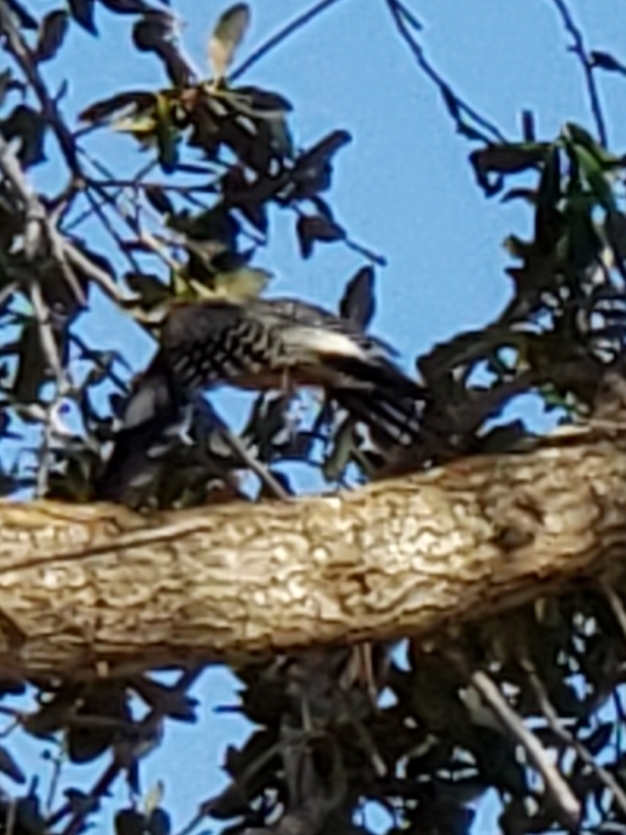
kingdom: Animalia
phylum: Chordata
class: Aves
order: Piciformes
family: Picidae
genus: Melanerpes
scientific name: Melanerpes carolinus
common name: Red-bellied woodpecker
